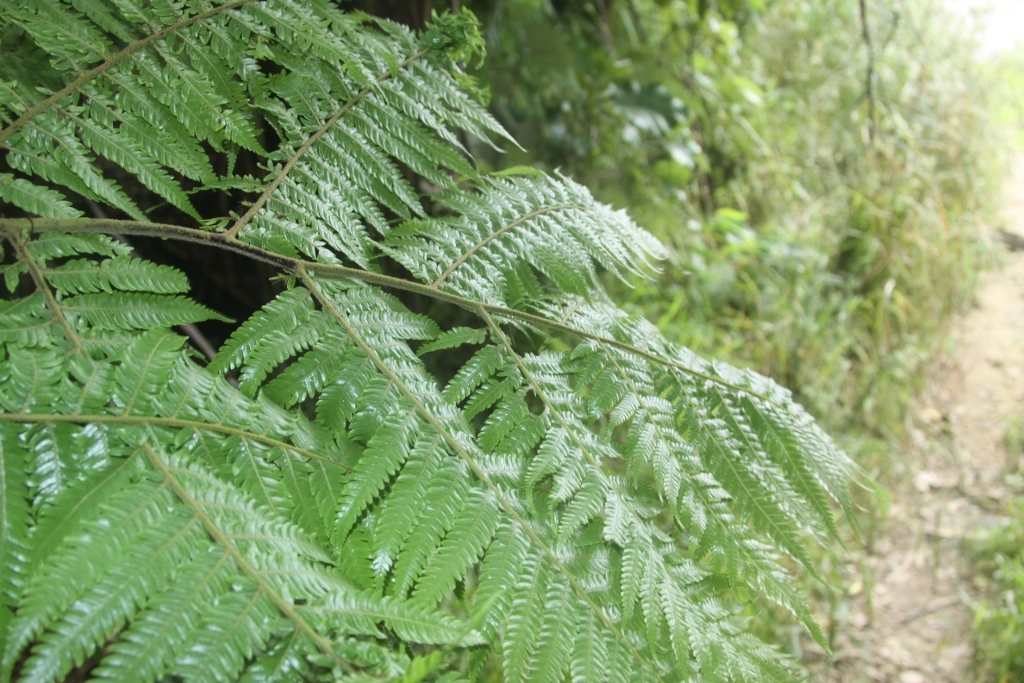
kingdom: Plantae
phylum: Tracheophyta
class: Polypodiopsida
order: Cyatheales
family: Cyatheaceae
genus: Alsophila
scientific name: Alsophila dealbata
